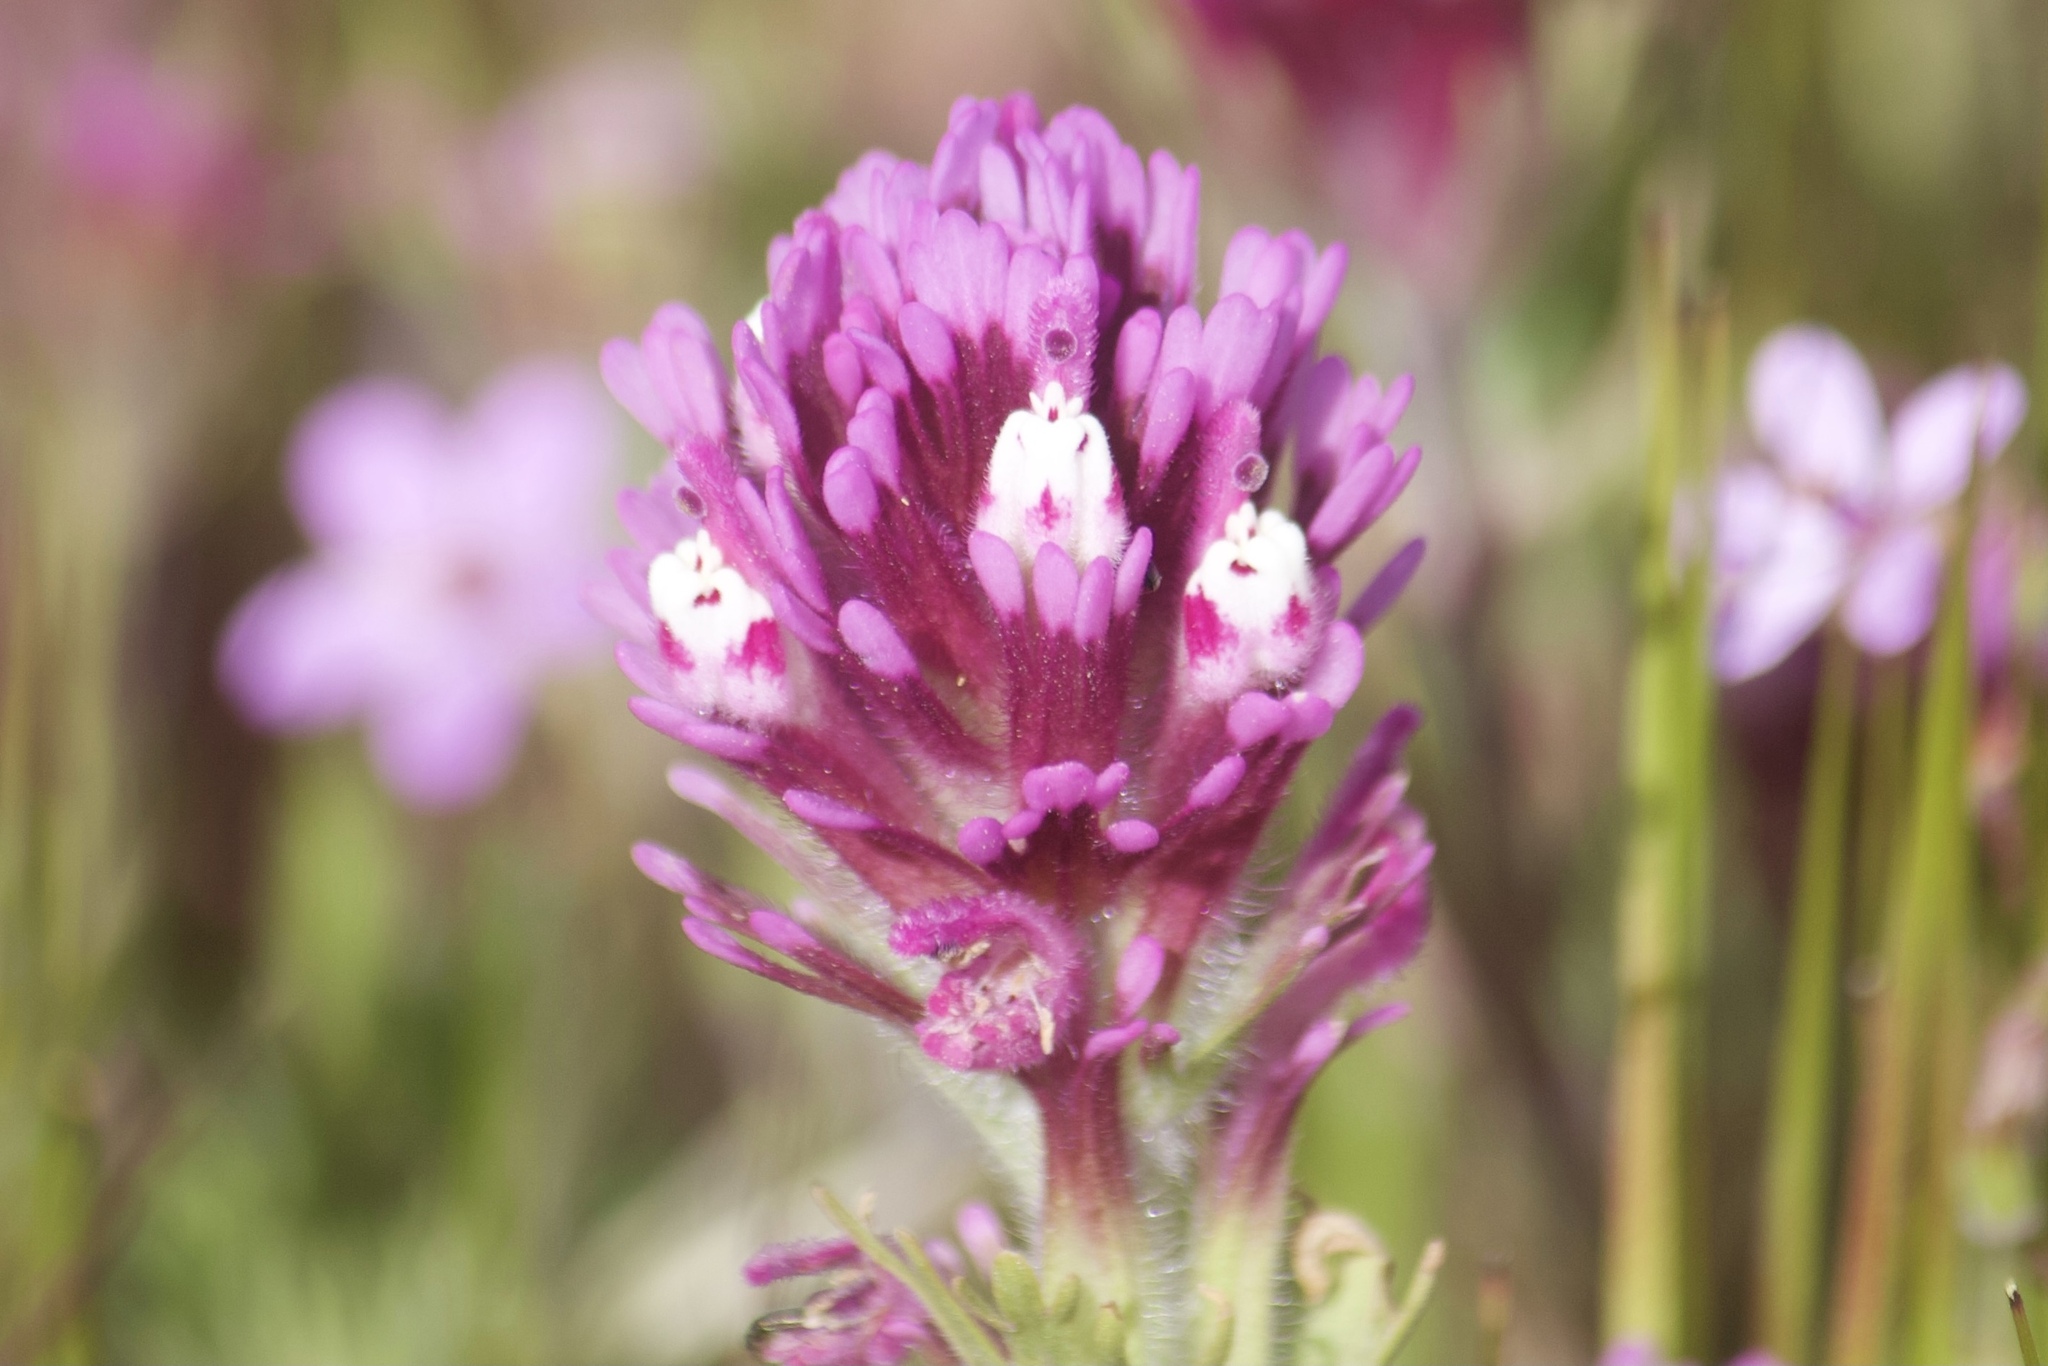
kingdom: Plantae
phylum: Tracheophyta
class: Magnoliopsida
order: Lamiales
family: Orobanchaceae
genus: Castilleja
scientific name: Castilleja exserta
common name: Purple owl-clover
